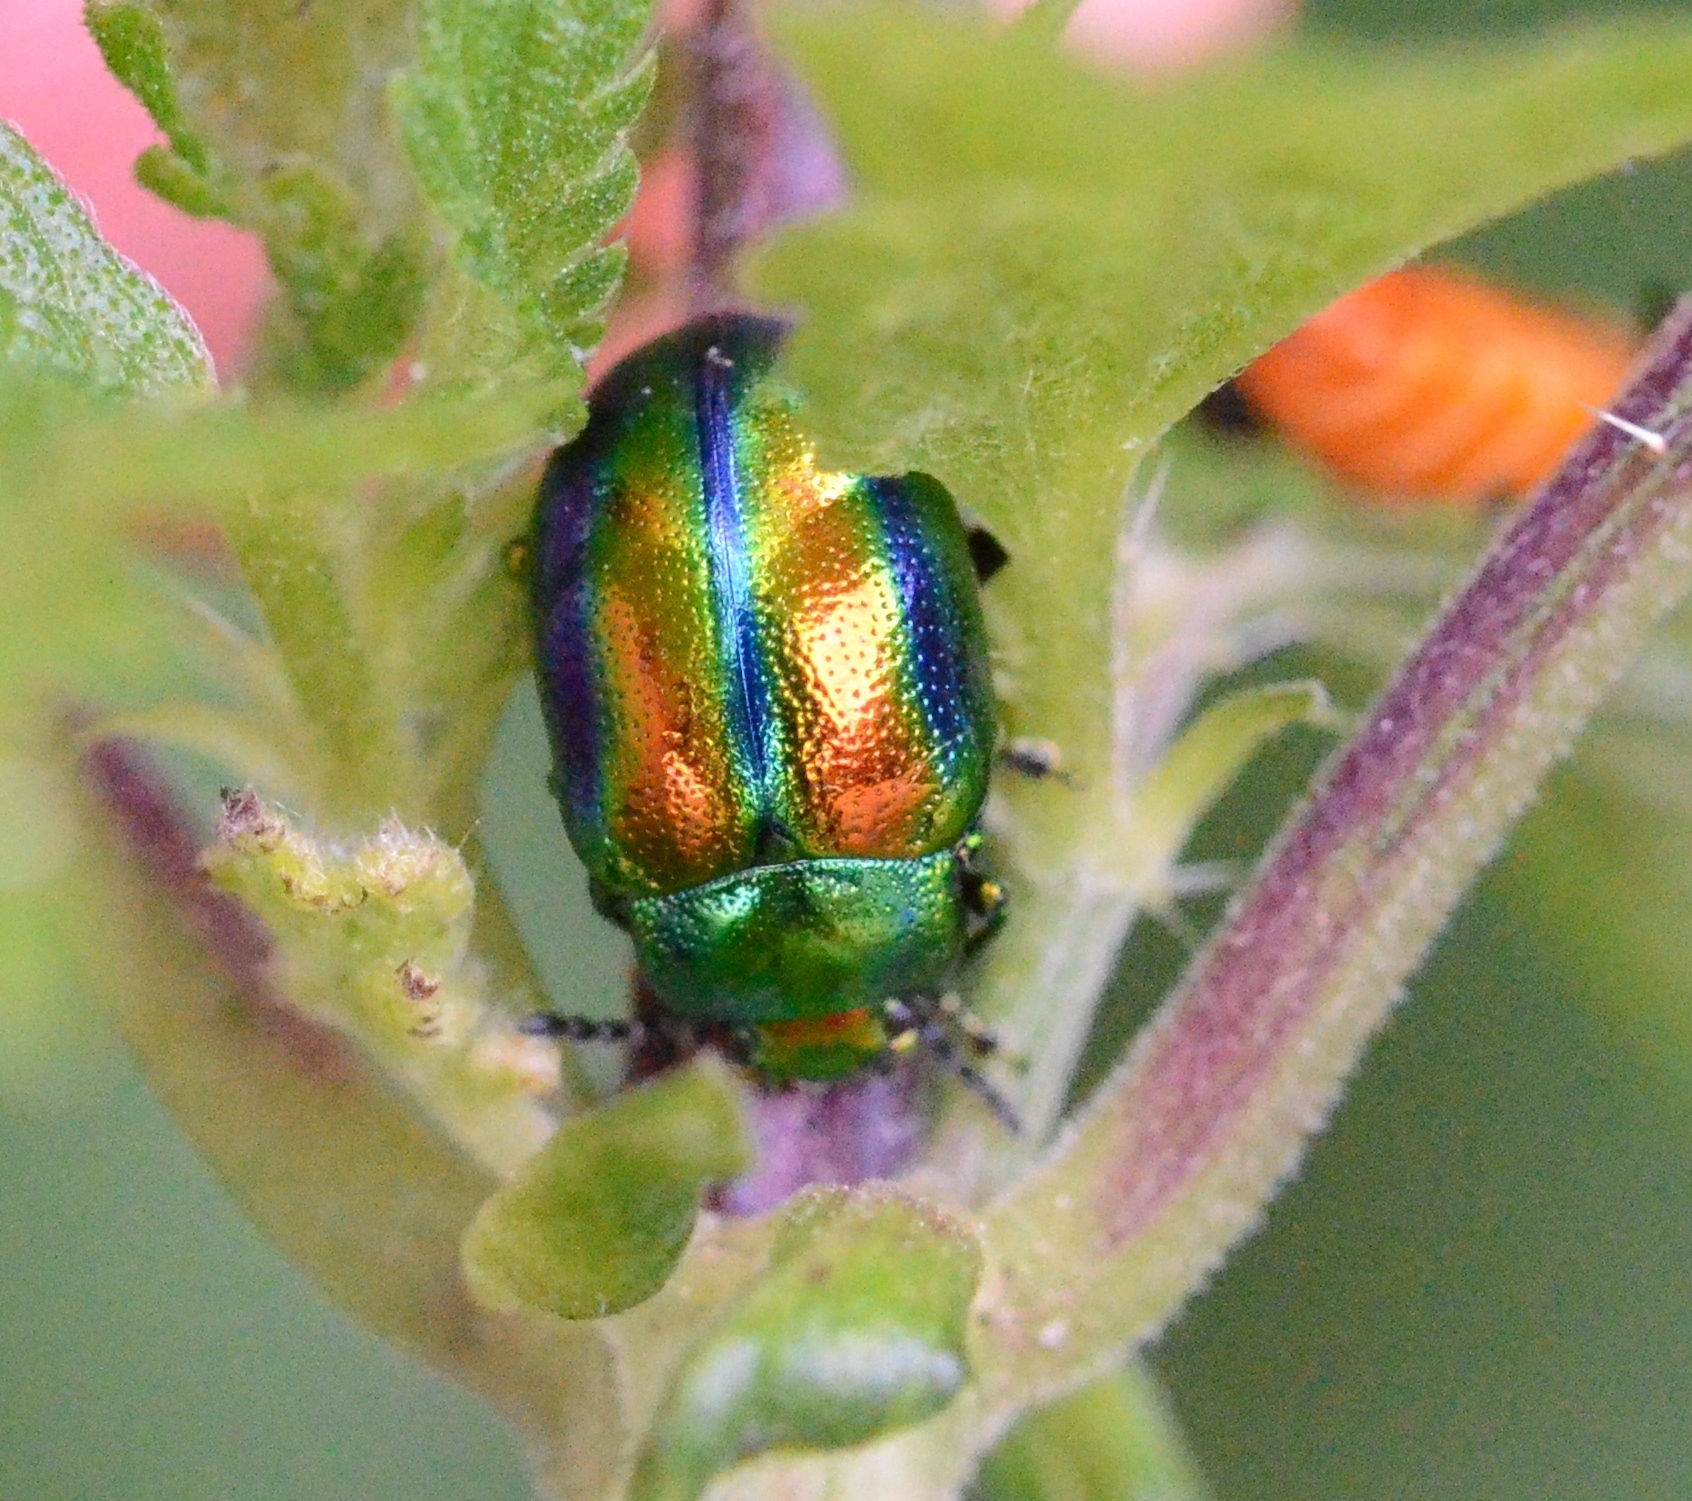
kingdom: Animalia
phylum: Arthropoda
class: Insecta
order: Coleoptera
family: Chrysomelidae
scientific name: Chrysomelidae
